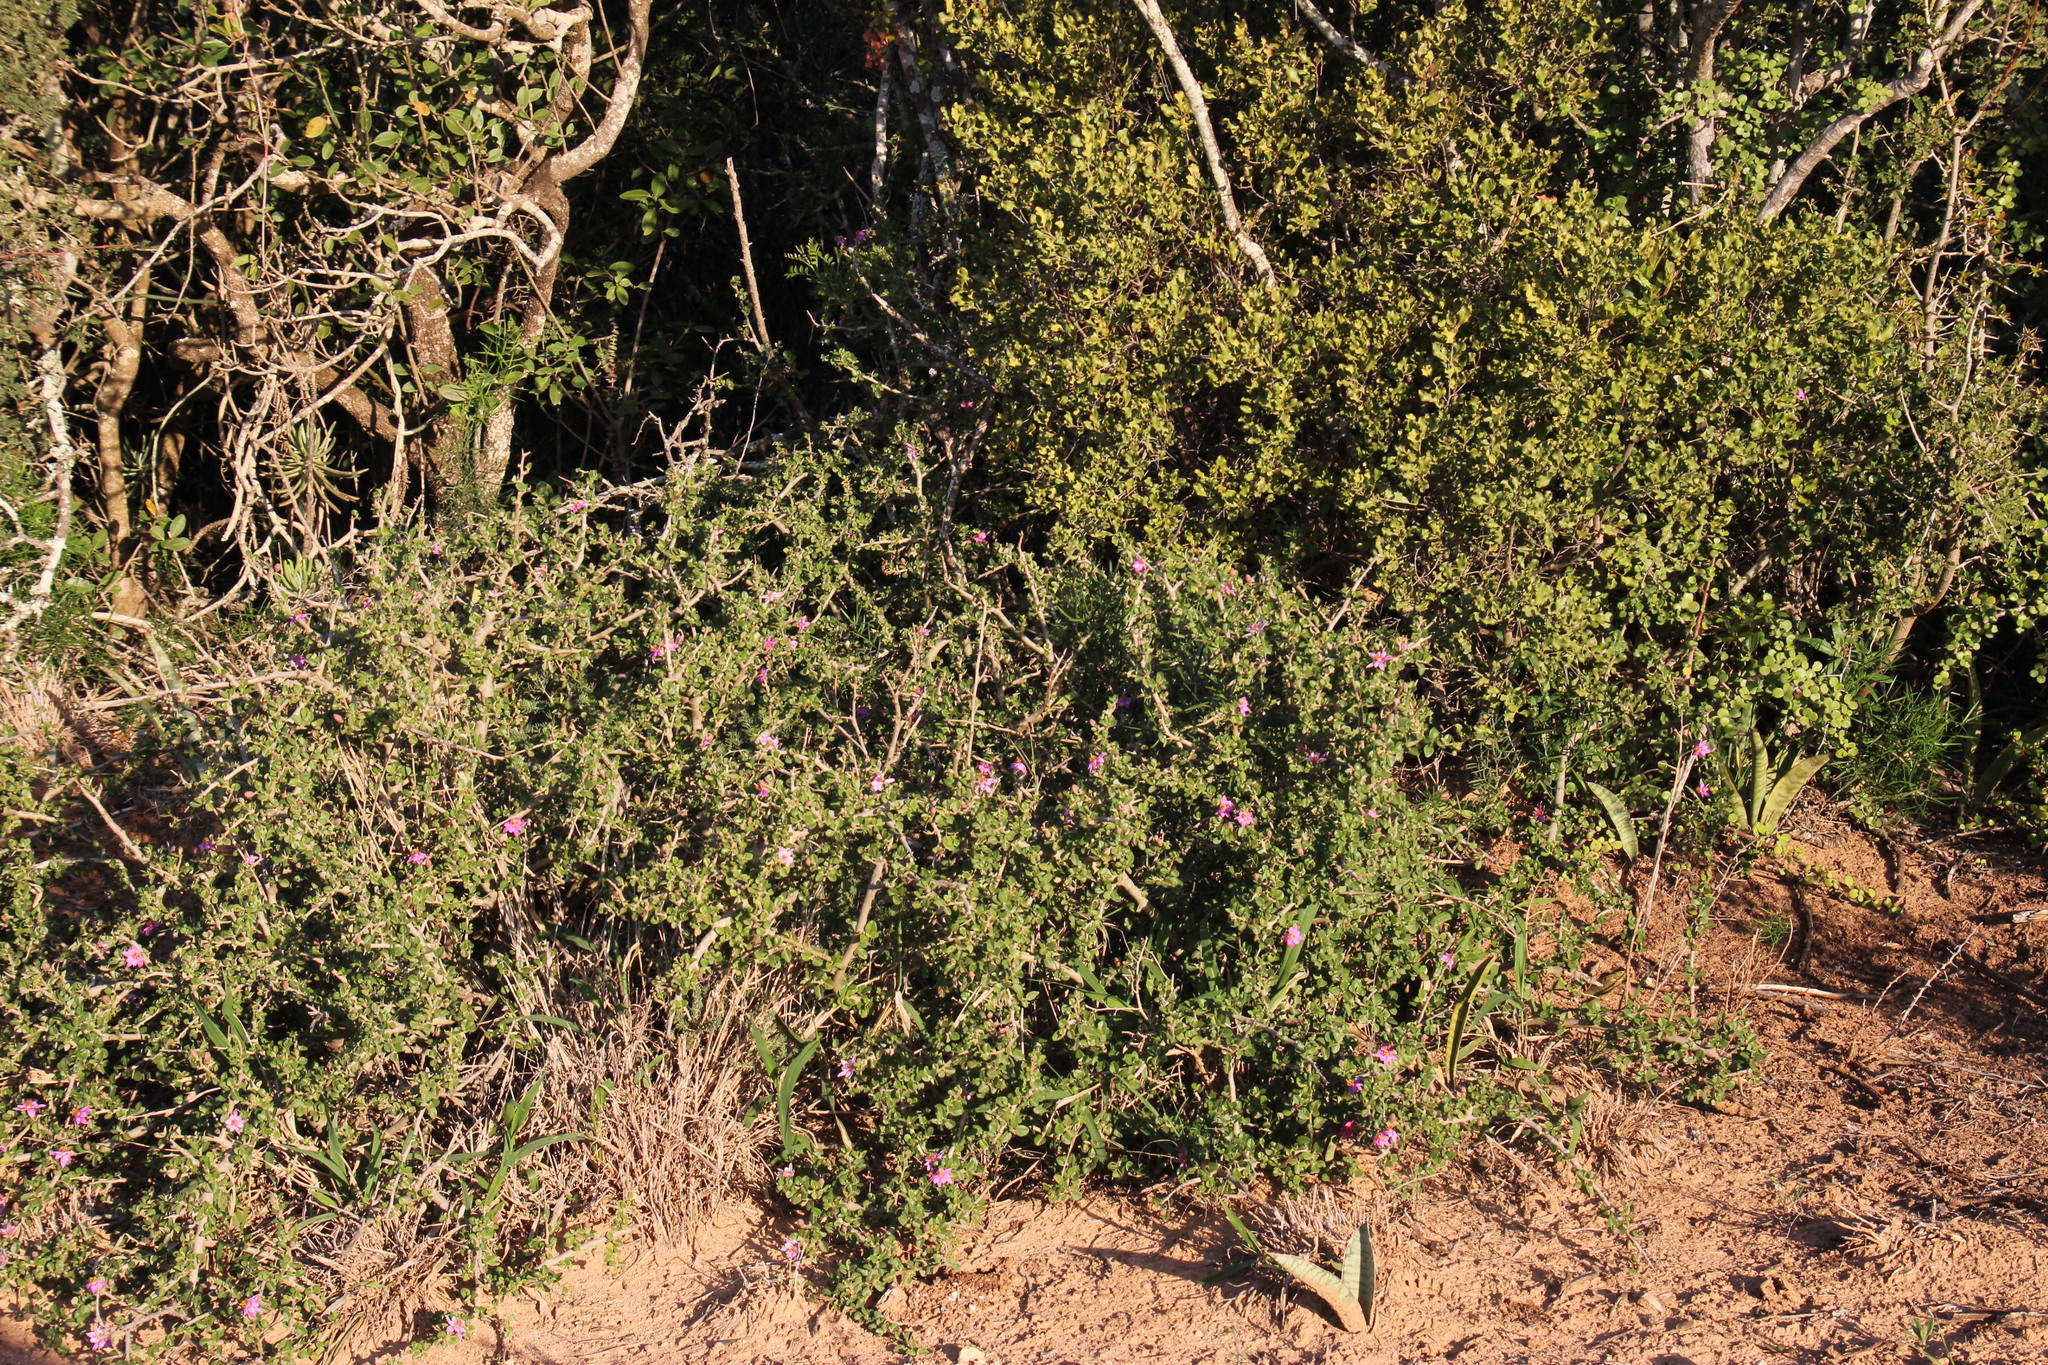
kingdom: Plantae
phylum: Tracheophyta
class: Magnoliopsida
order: Malvales
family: Malvaceae
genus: Grewia
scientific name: Grewia robusta
